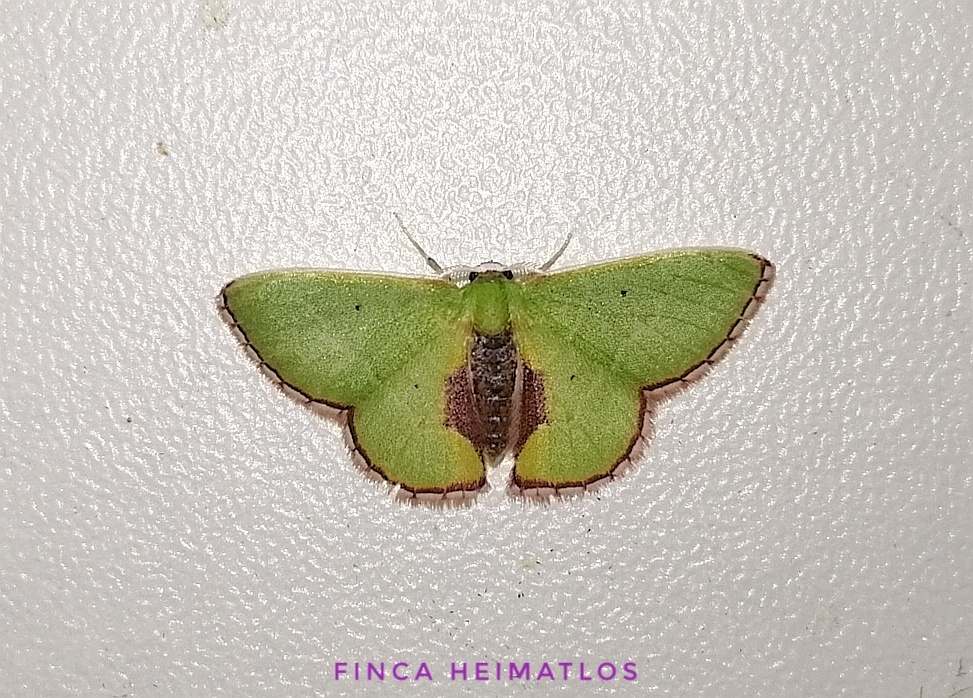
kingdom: Animalia
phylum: Arthropoda
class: Insecta
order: Lepidoptera
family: Geometridae
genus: Synchlora
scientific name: Synchlora astraeoides
